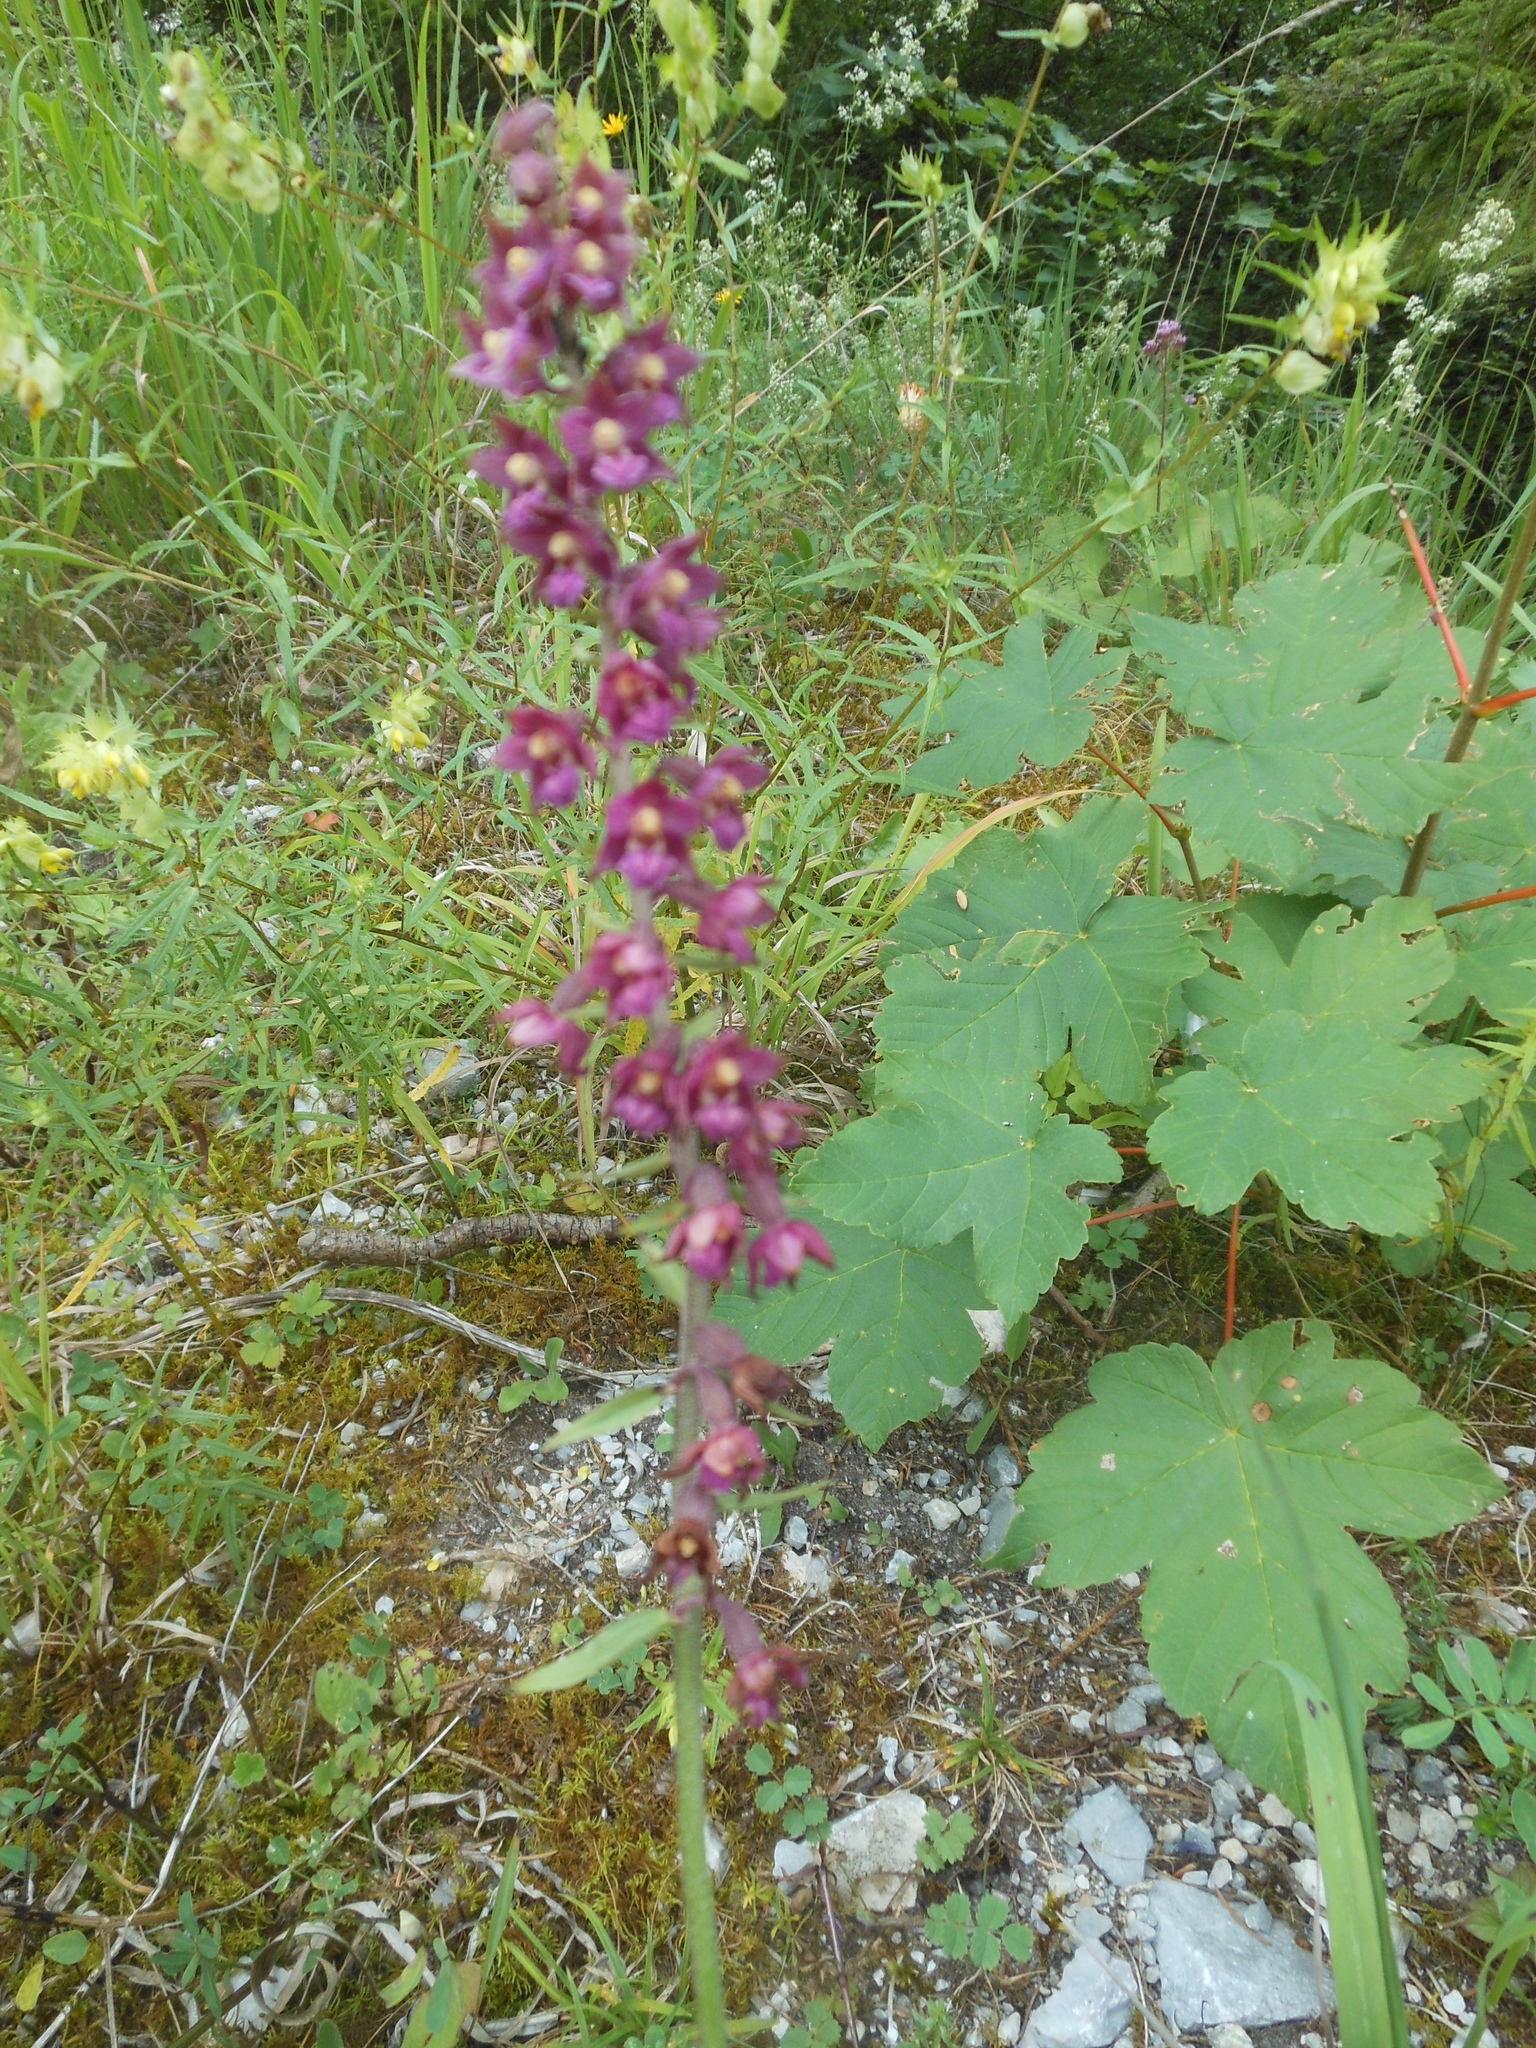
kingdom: Plantae
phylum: Tracheophyta
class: Liliopsida
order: Asparagales
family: Orchidaceae
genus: Epipactis
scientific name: Epipactis atrorubens
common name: Dark-red helleborine
